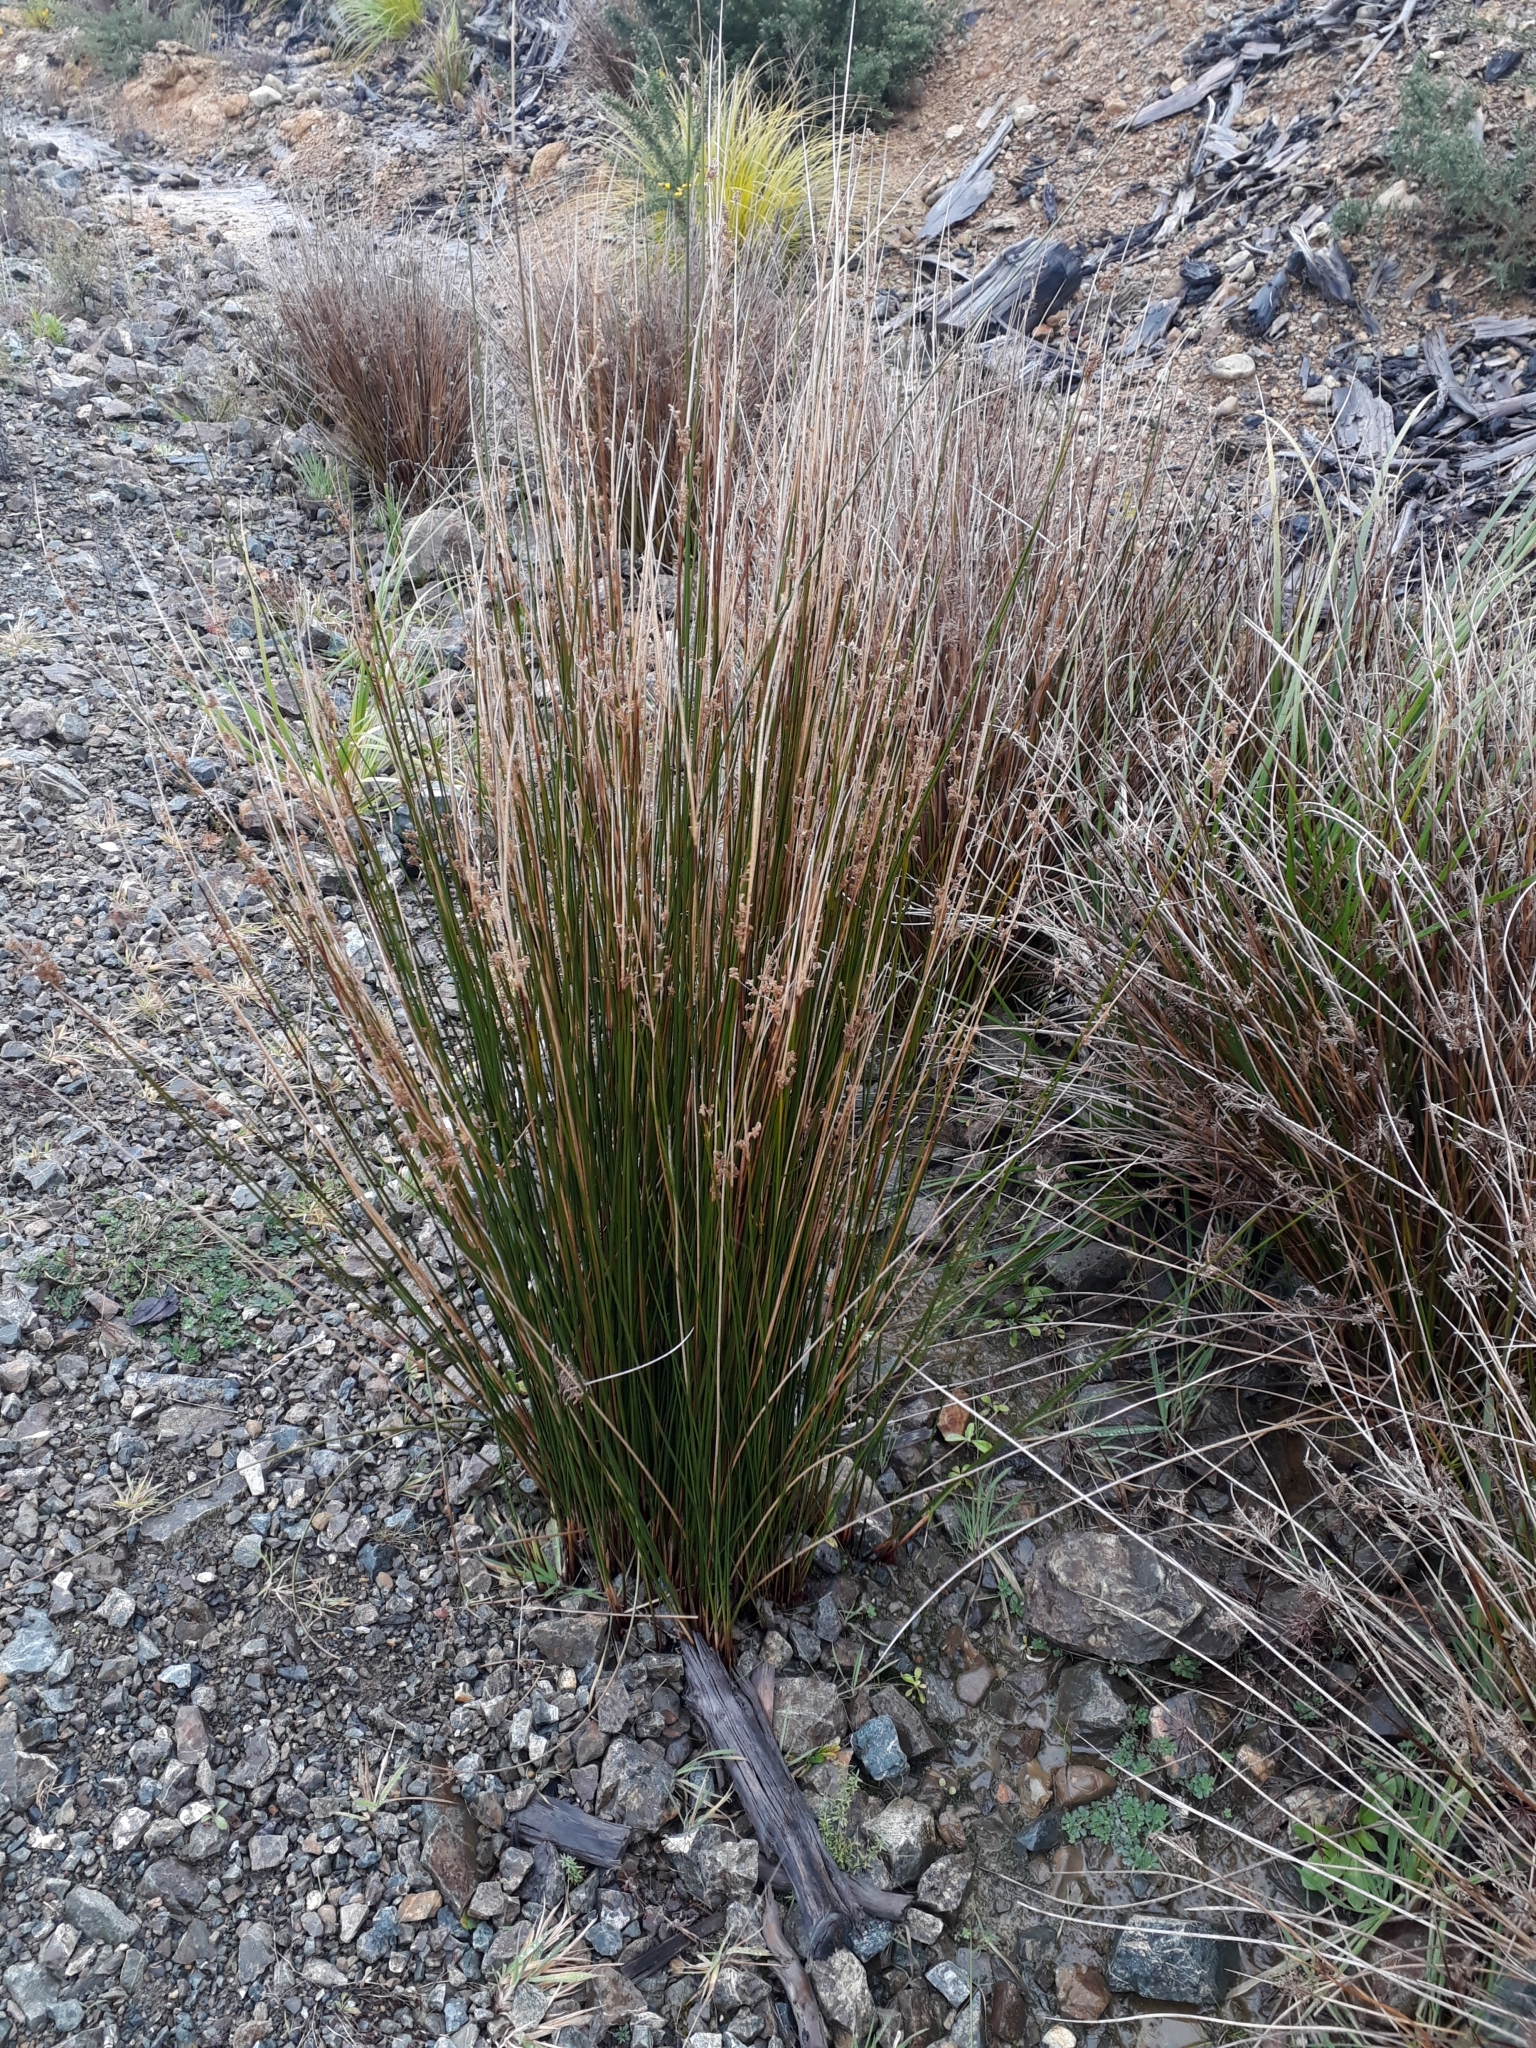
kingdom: Plantae
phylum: Tracheophyta
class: Liliopsida
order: Poales
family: Juncaceae
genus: Juncus
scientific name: Juncus edgariae
